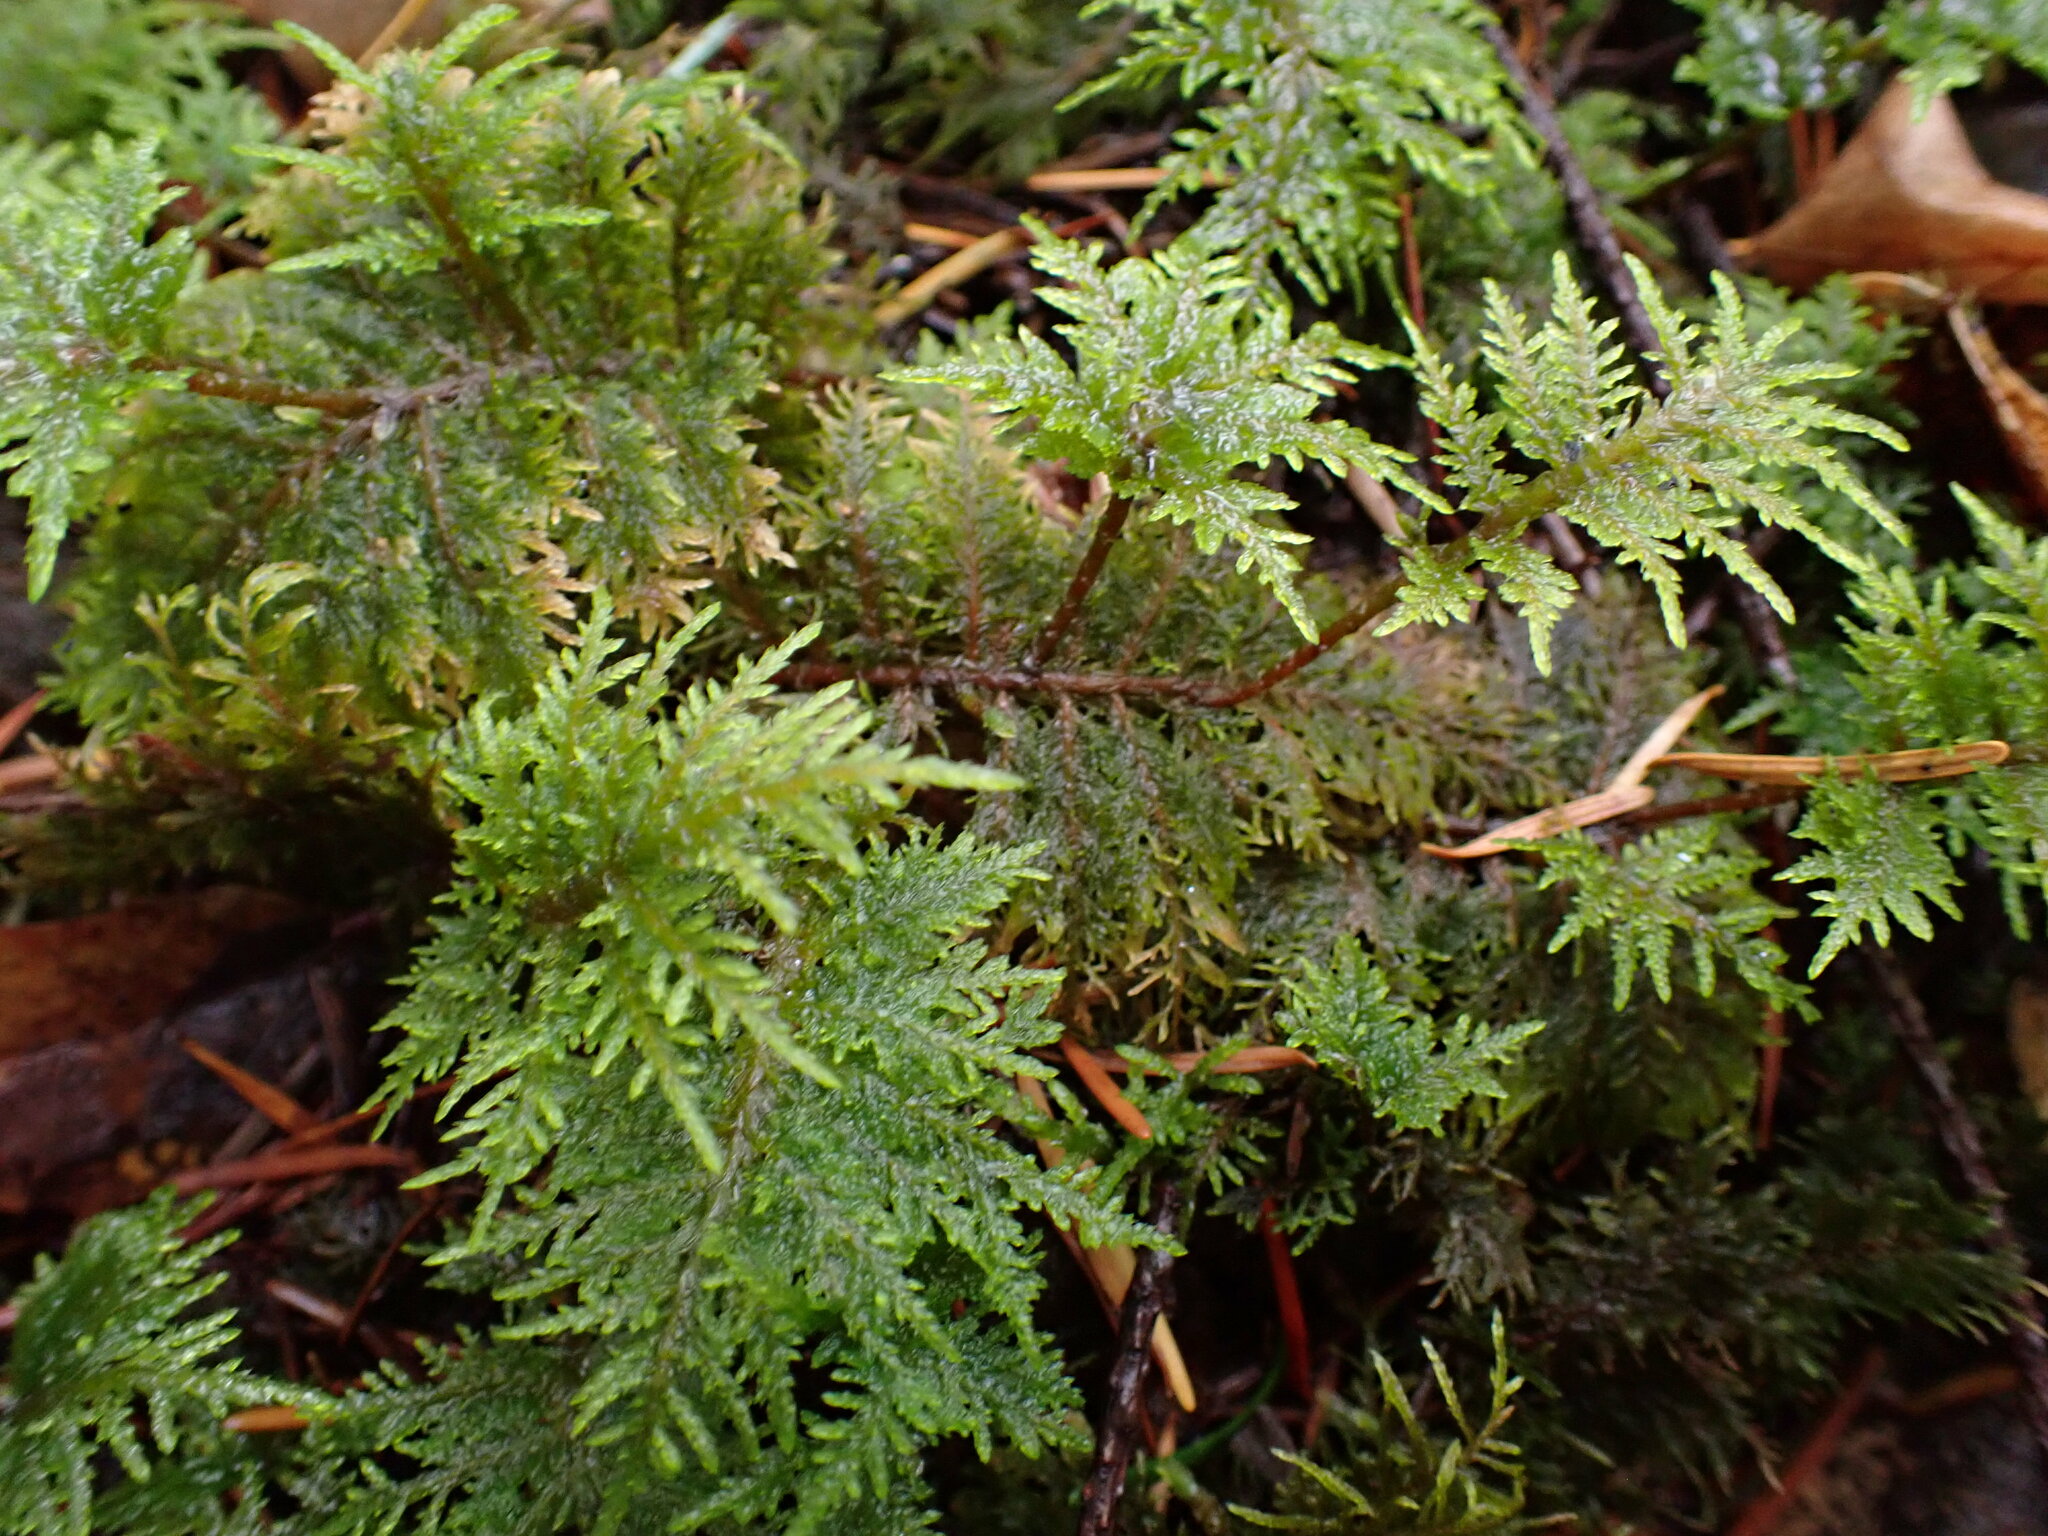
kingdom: Plantae
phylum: Bryophyta
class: Bryopsida
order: Hypnales
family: Hylocomiaceae
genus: Hylocomium
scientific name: Hylocomium splendens
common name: Stairstep moss
